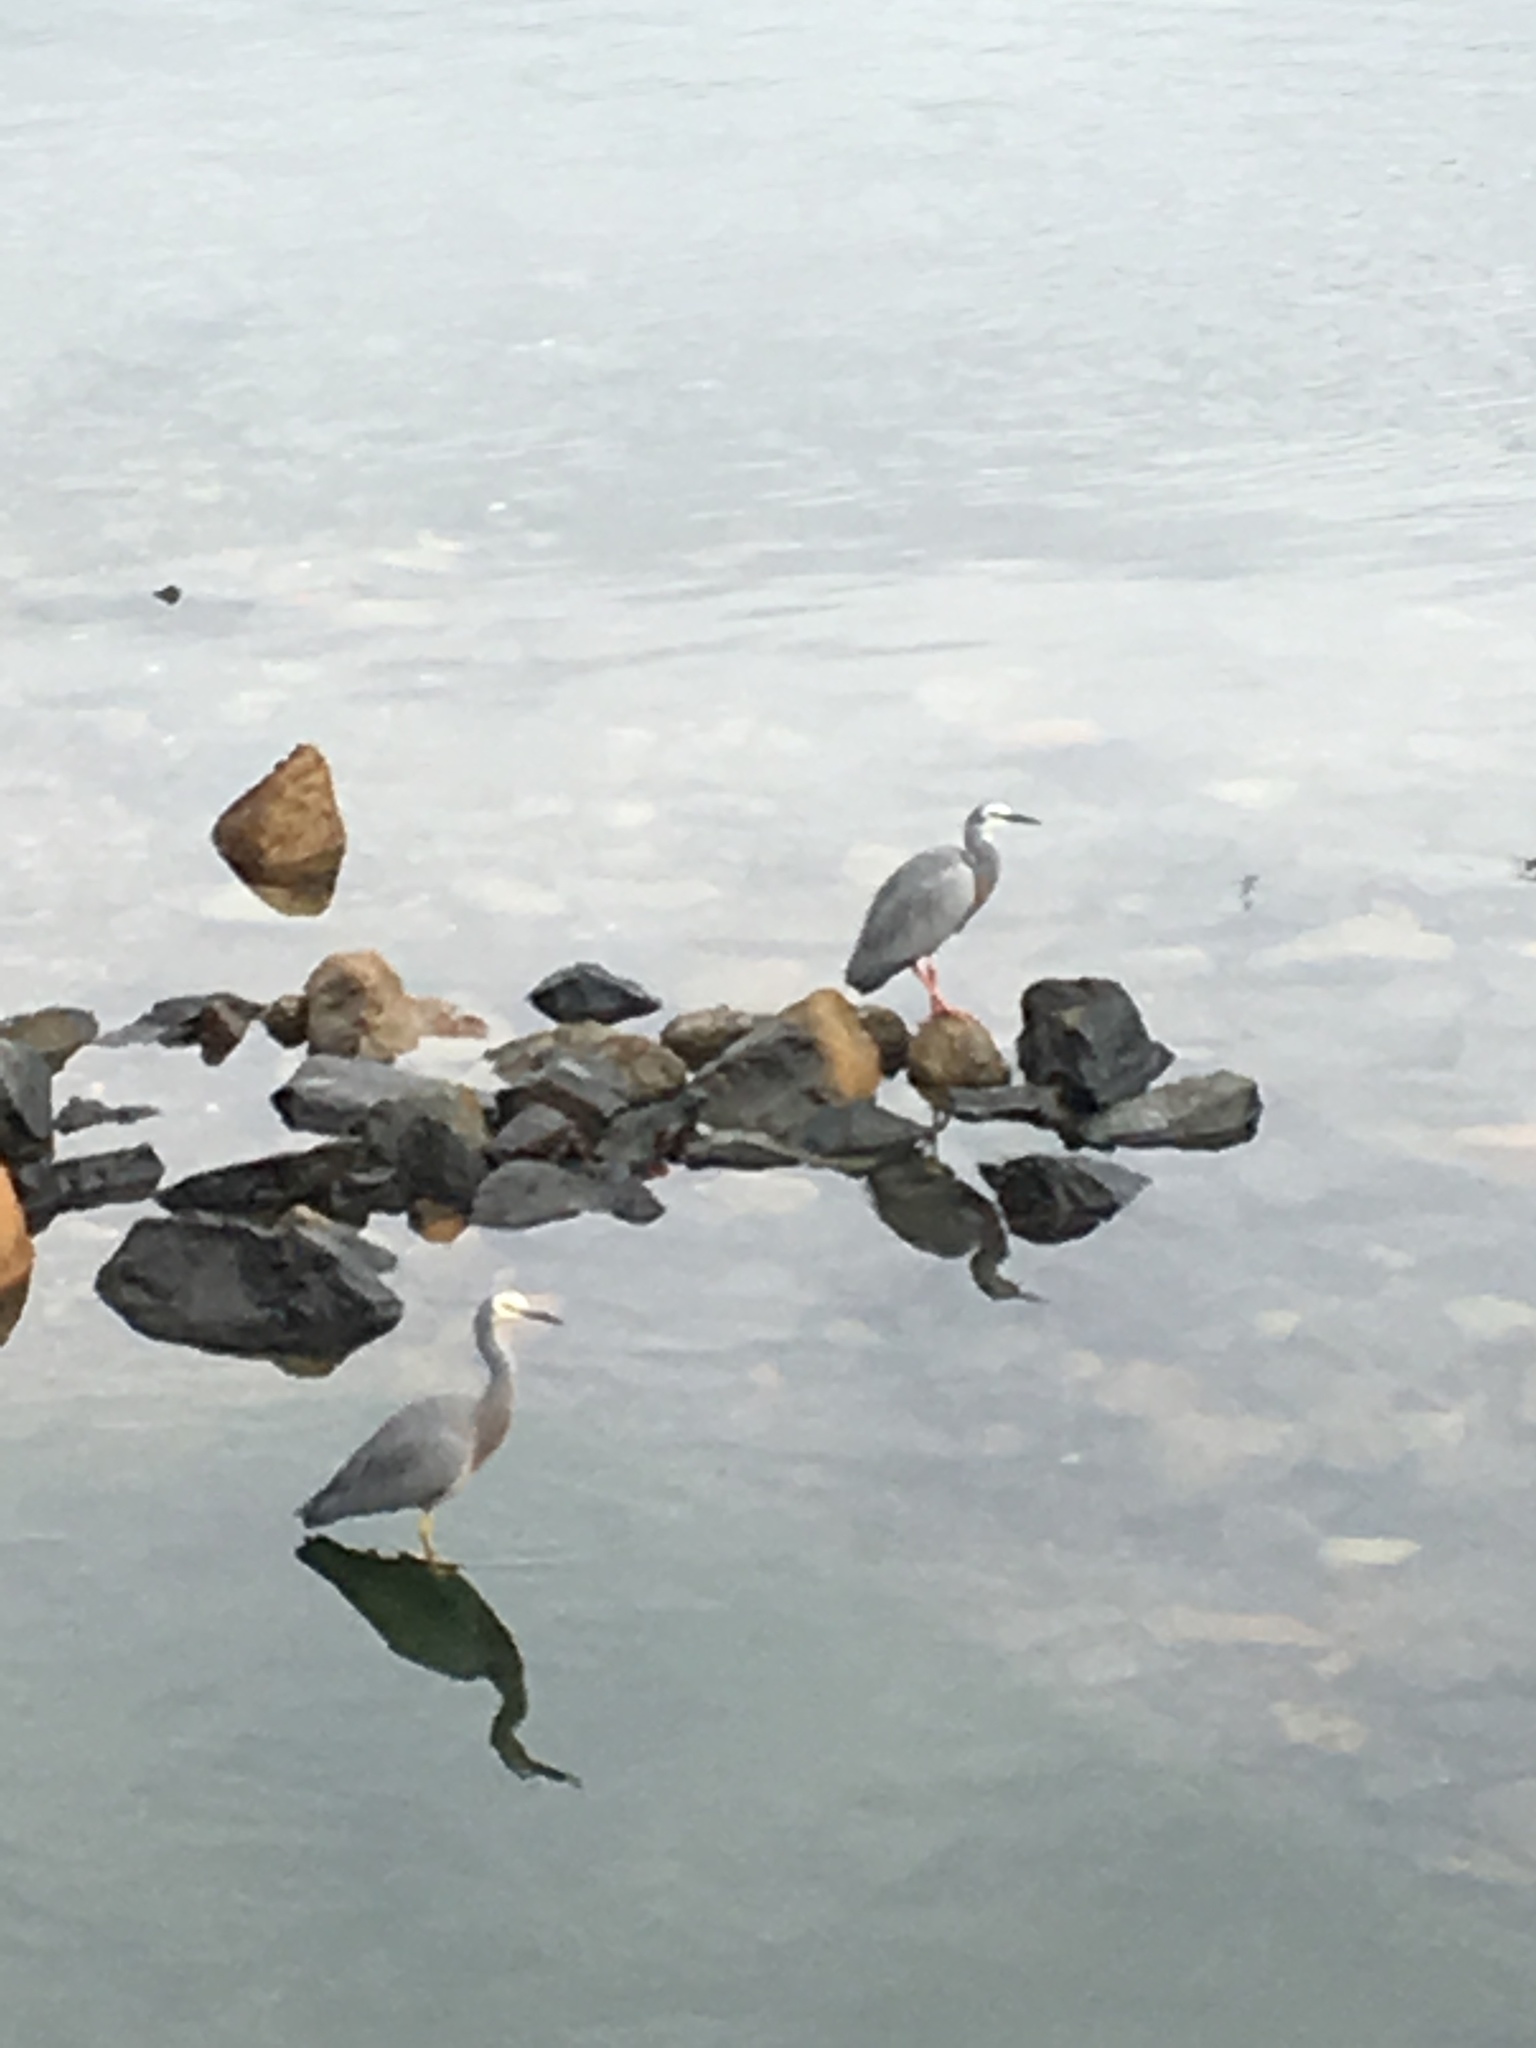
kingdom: Animalia
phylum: Chordata
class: Aves
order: Pelecaniformes
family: Ardeidae
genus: Egretta
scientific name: Egretta novaehollandiae
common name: White-faced heron
